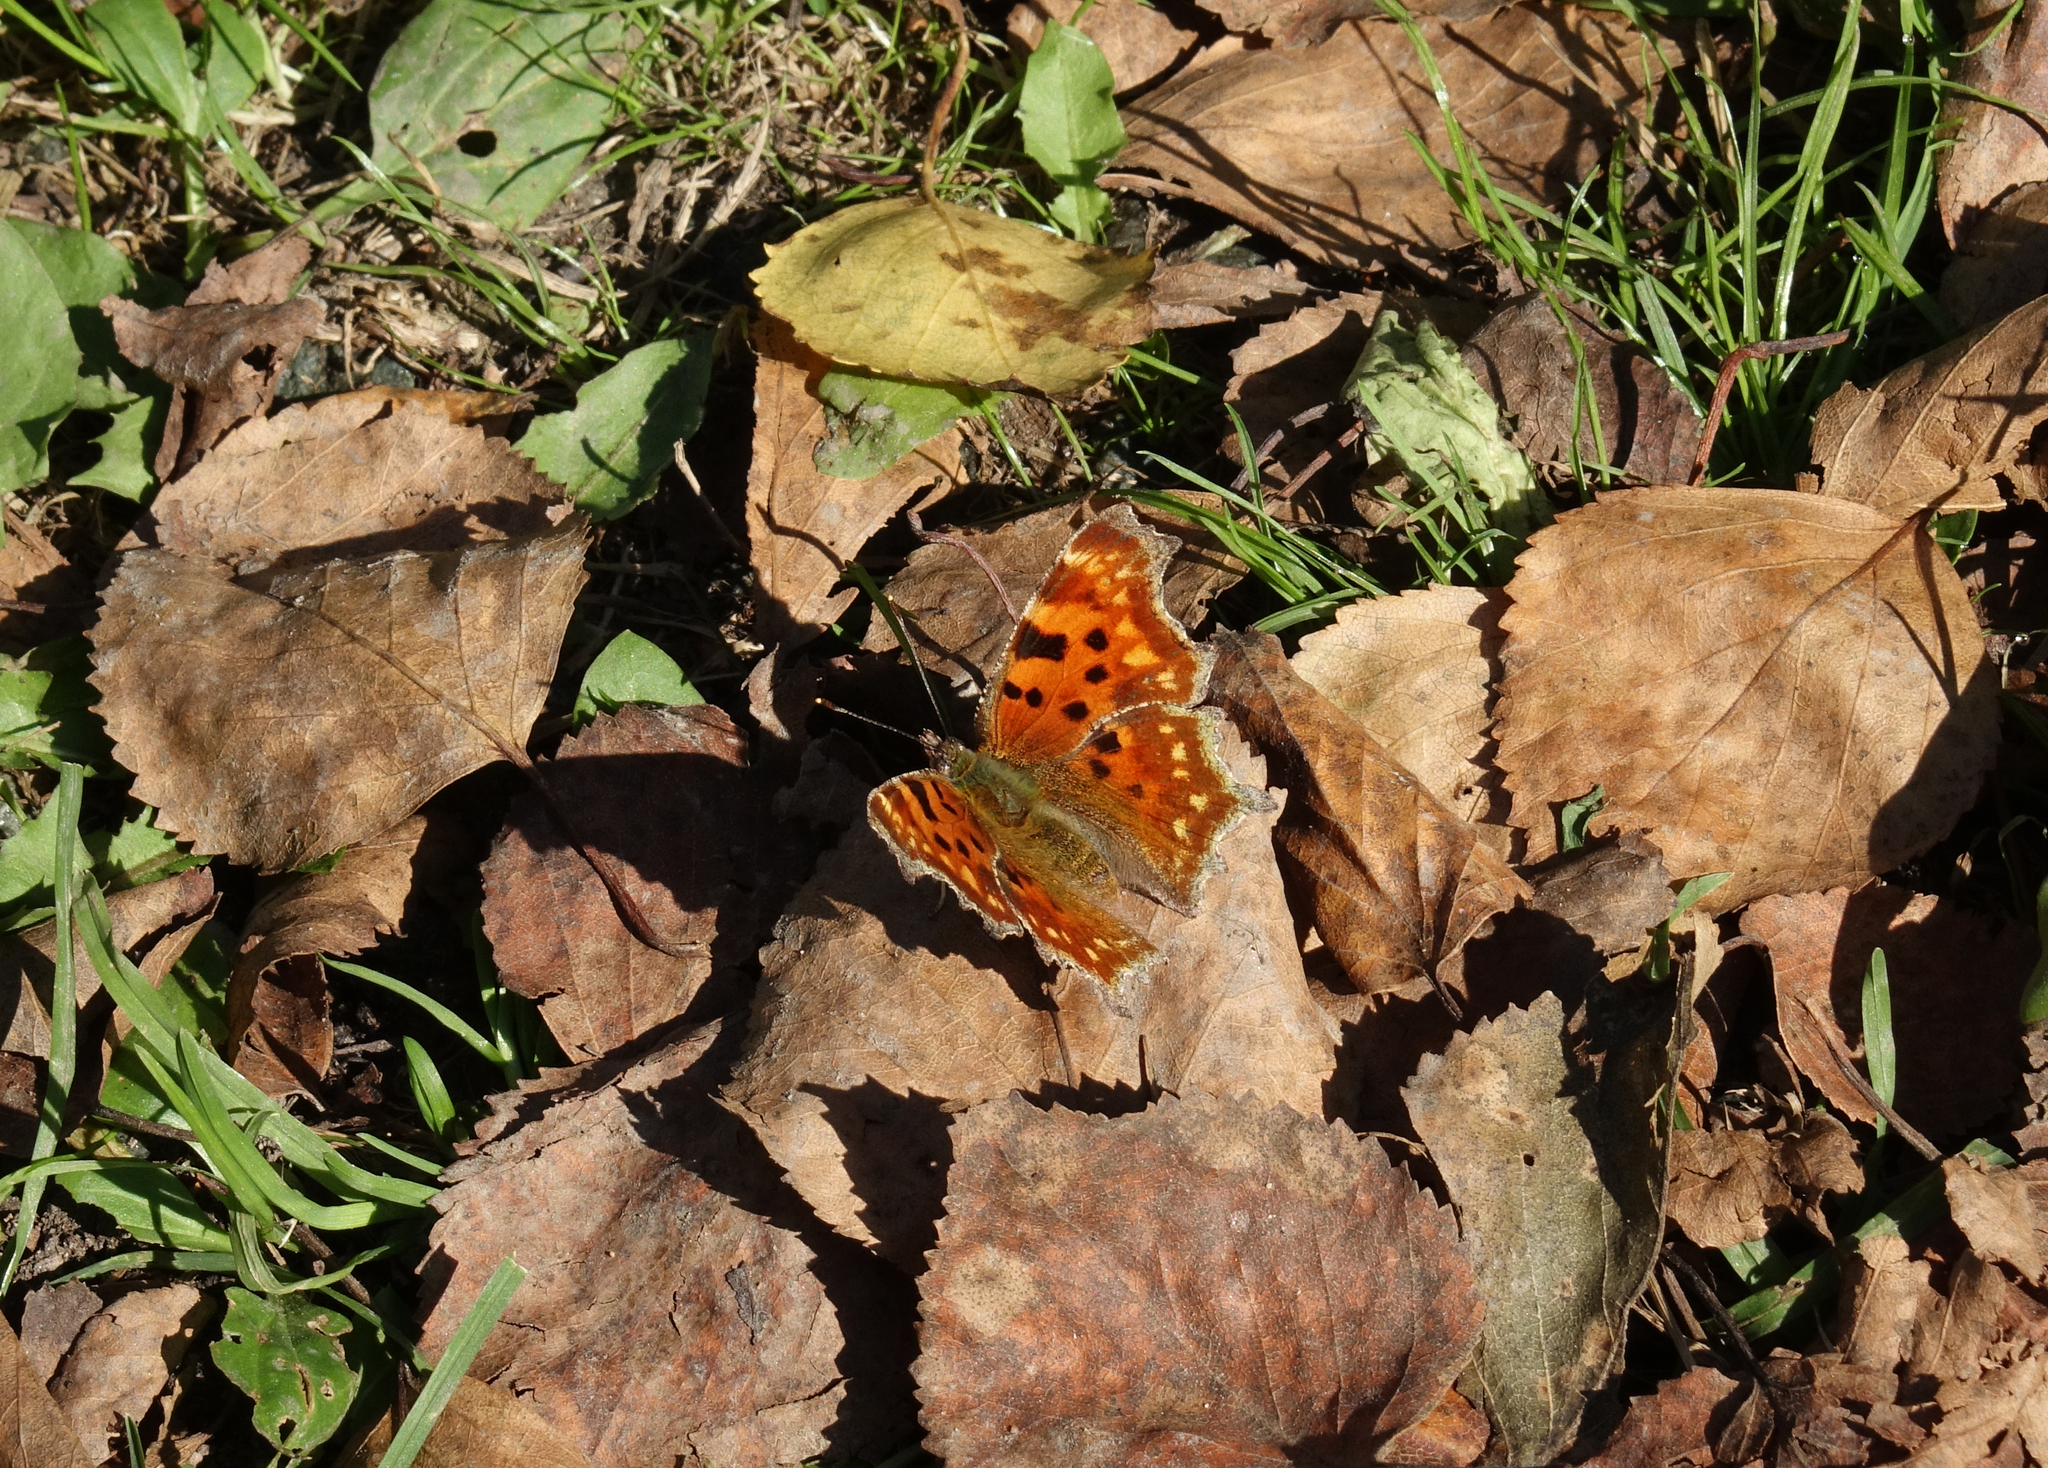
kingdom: Animalia
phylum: Arthropoda
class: Insecta
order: Lepidoptera
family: Nymphalidae
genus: Polygonia
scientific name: Polygonia c-album
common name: Comma
